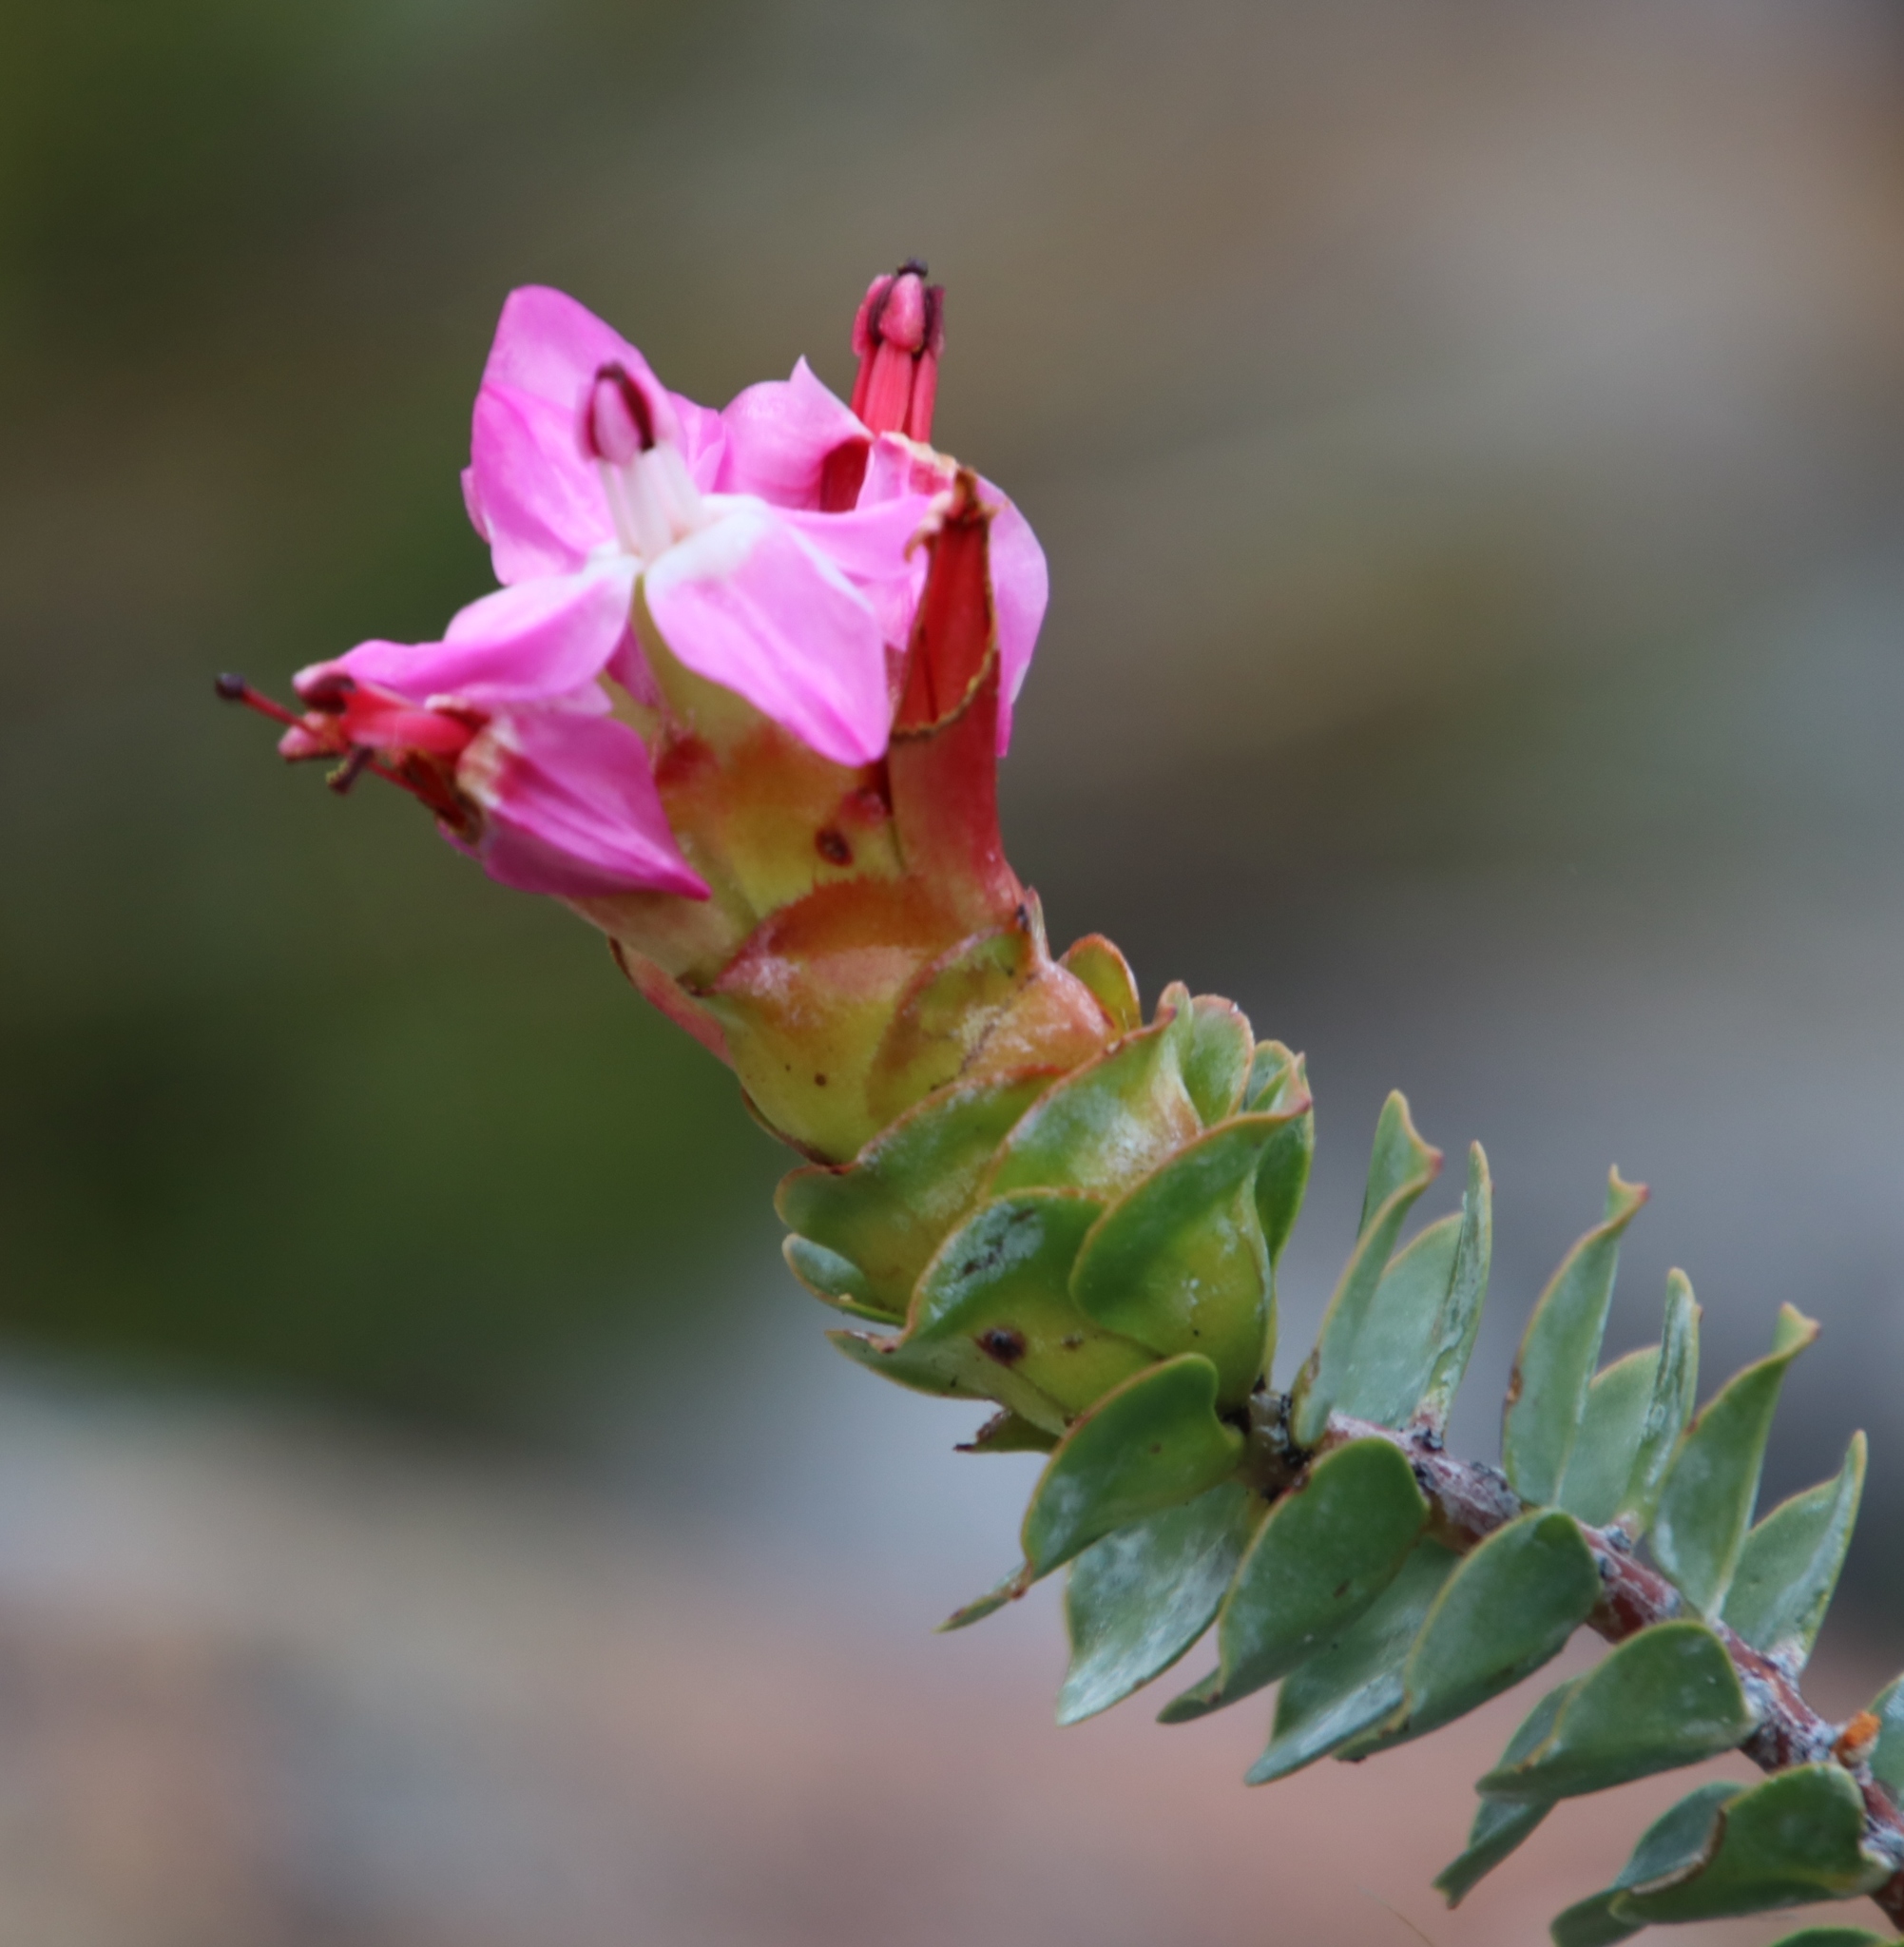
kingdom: Plantae
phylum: Tracheophyta
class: Magnoliopsida
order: Myrtales
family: Penaeaceae
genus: Saltera
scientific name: Saltera sarcocolla
